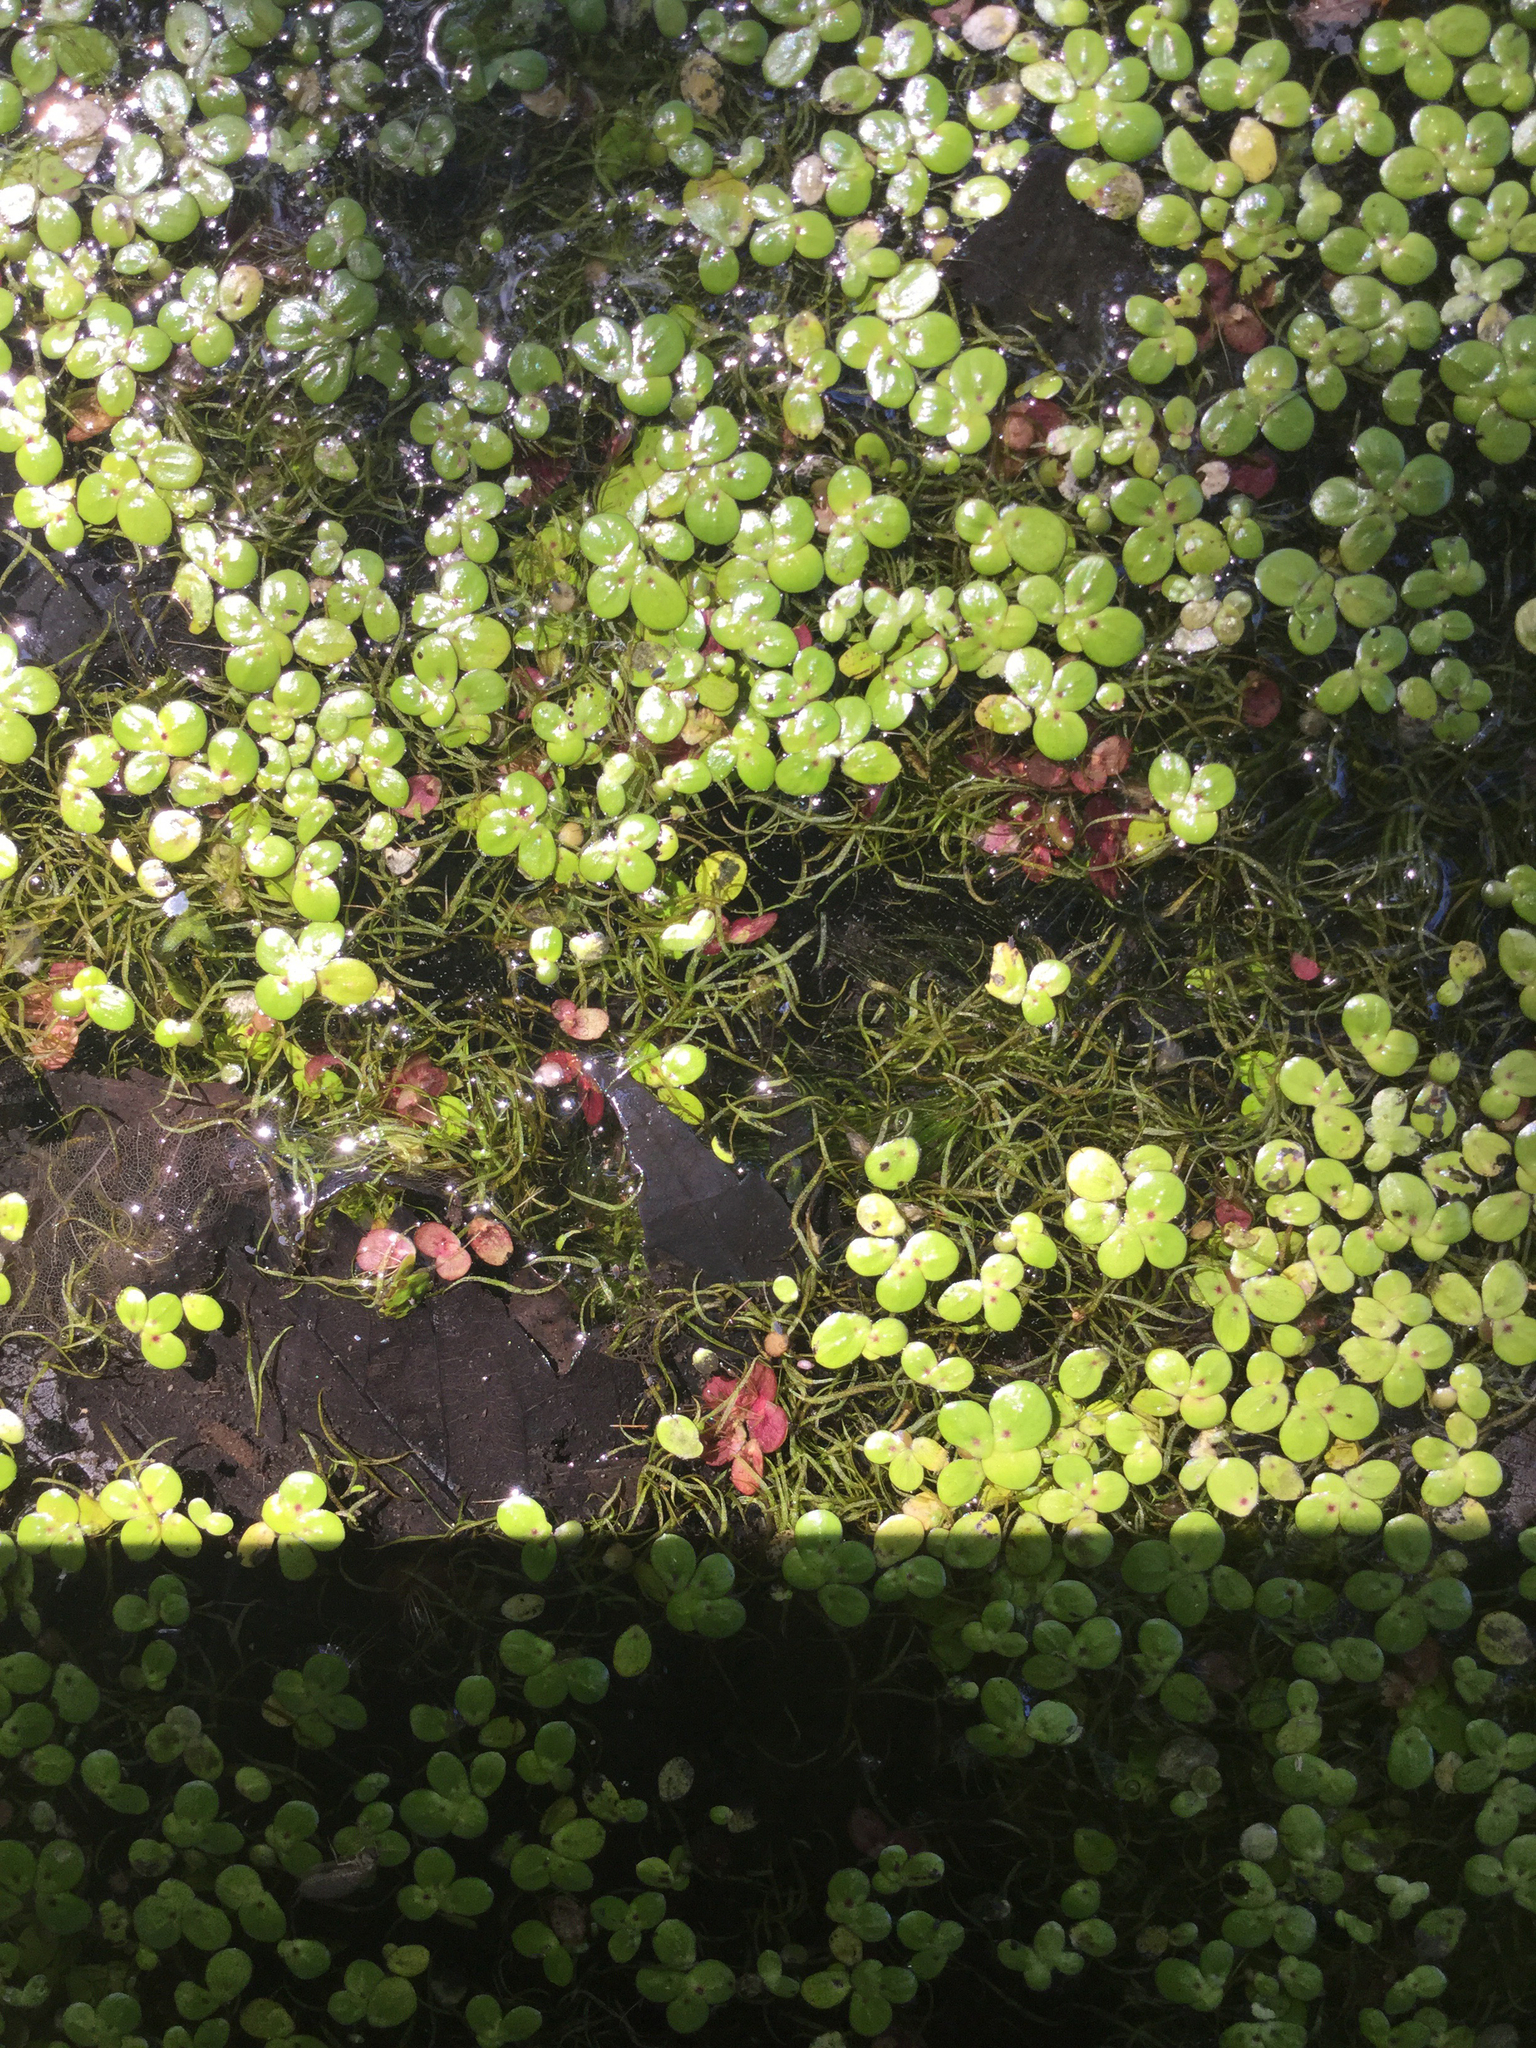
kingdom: Plantae
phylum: Tracheophyta
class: Liliopsida
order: Alismatales
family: Araceae
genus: Wolffiella
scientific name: Wolffiella gladiata
